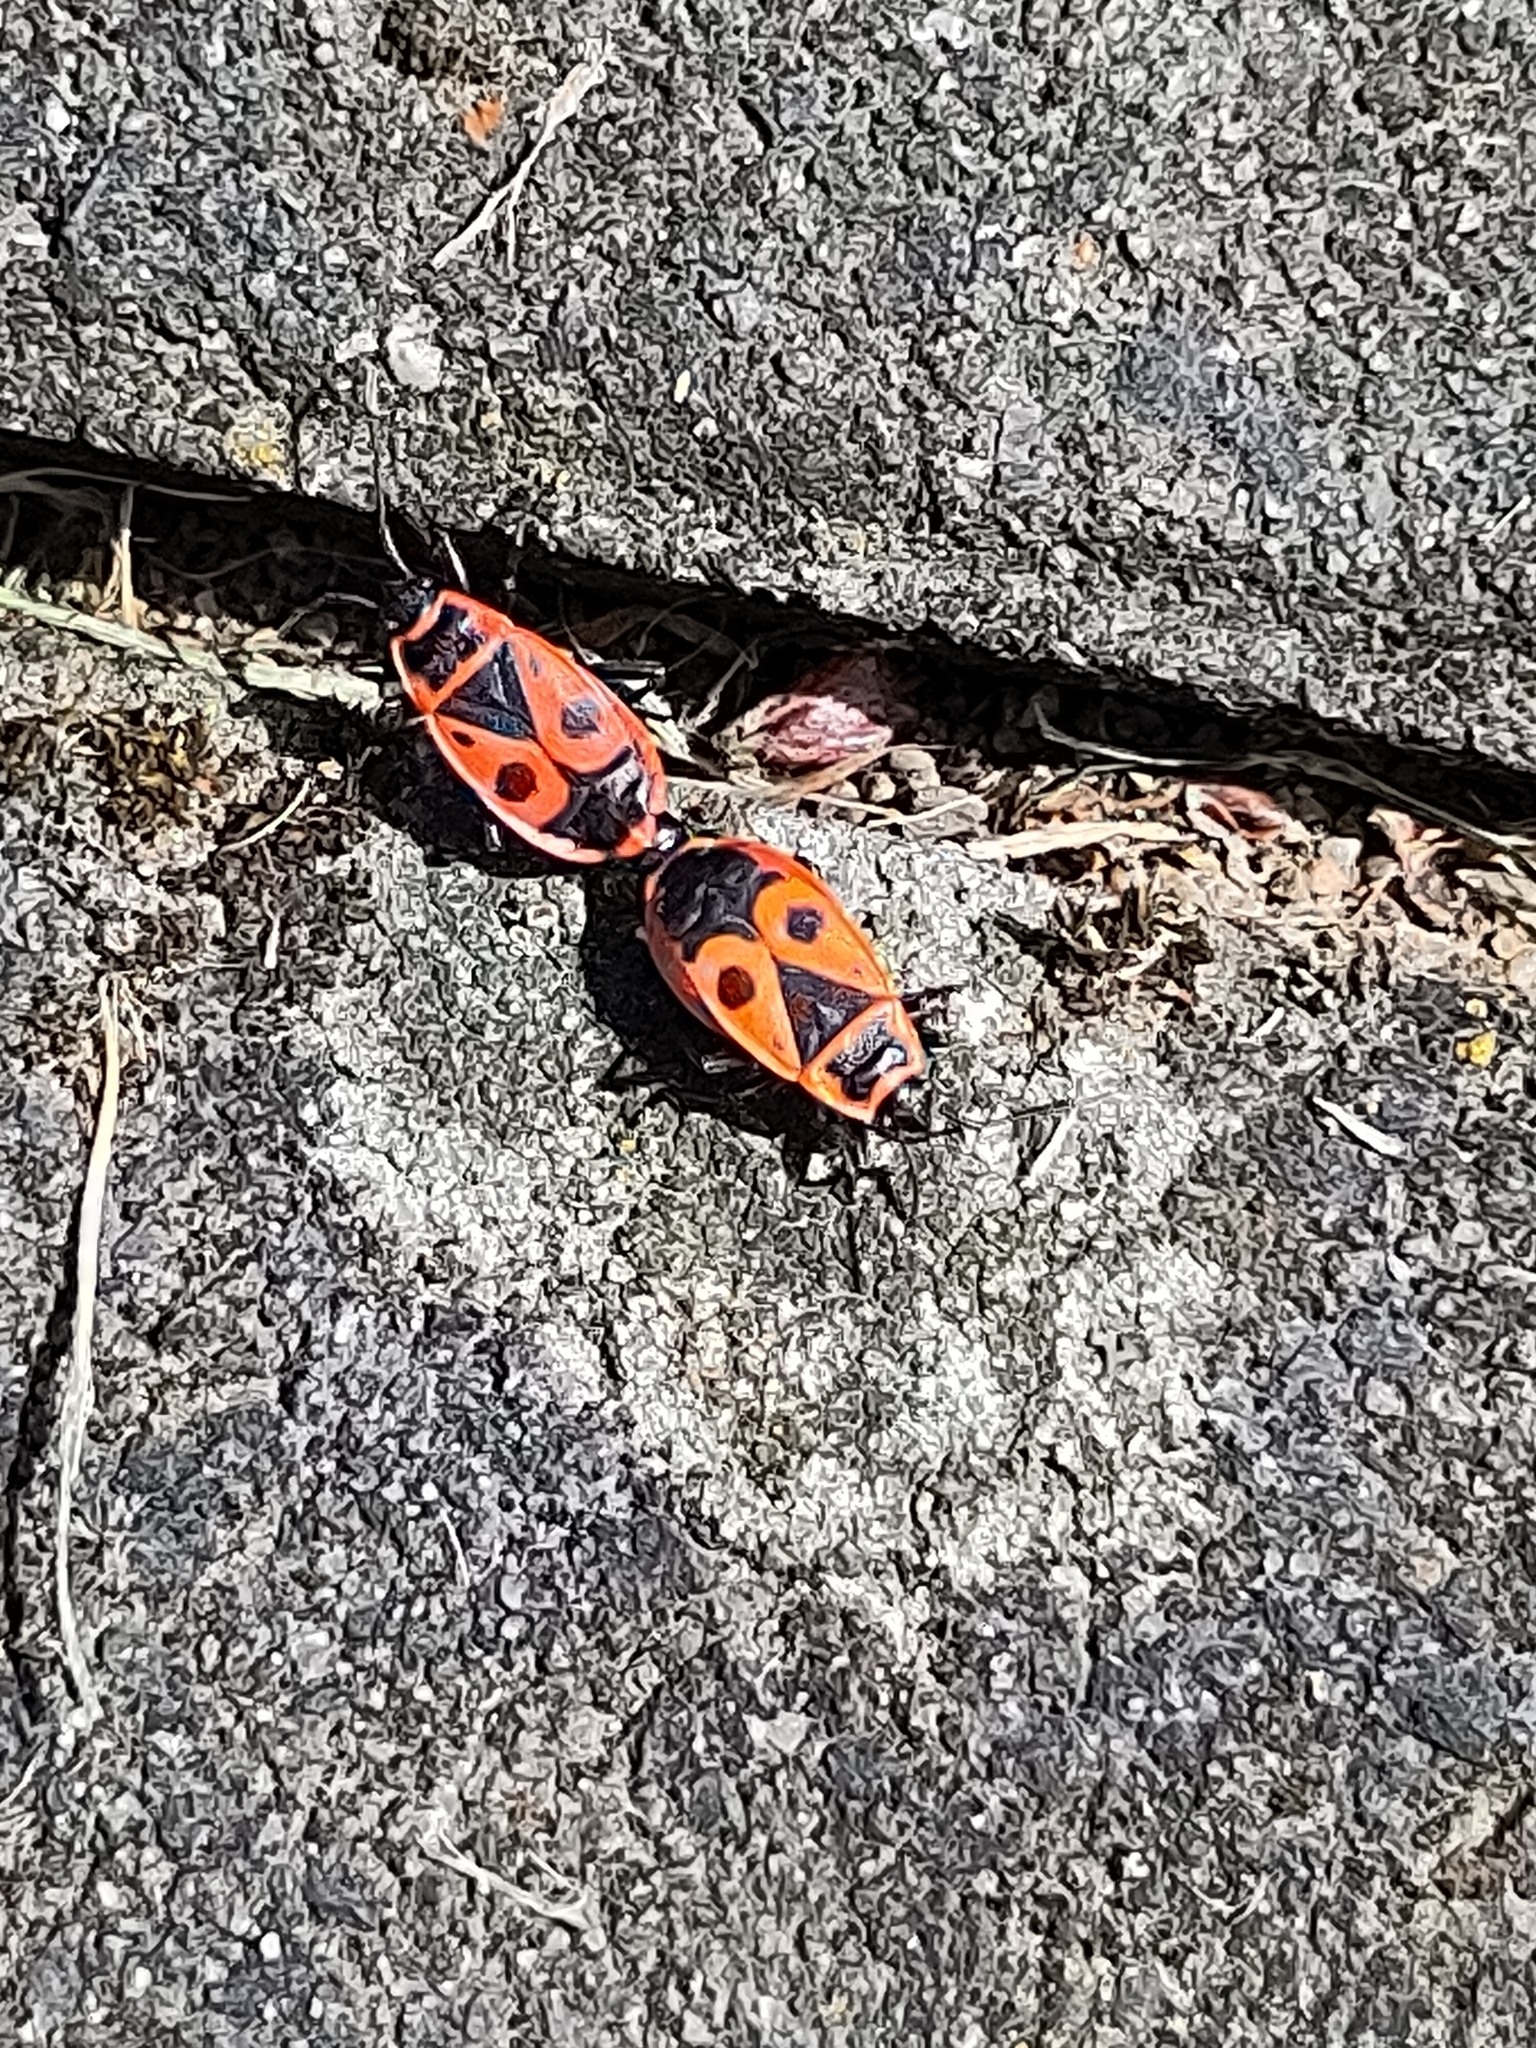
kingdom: Animalia
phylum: Arthropoda
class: Insecta
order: Hemiptera
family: Pyrrhocoridae
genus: Pyrrhocoris
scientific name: Pyrrhocoris apterus
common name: Firebug
